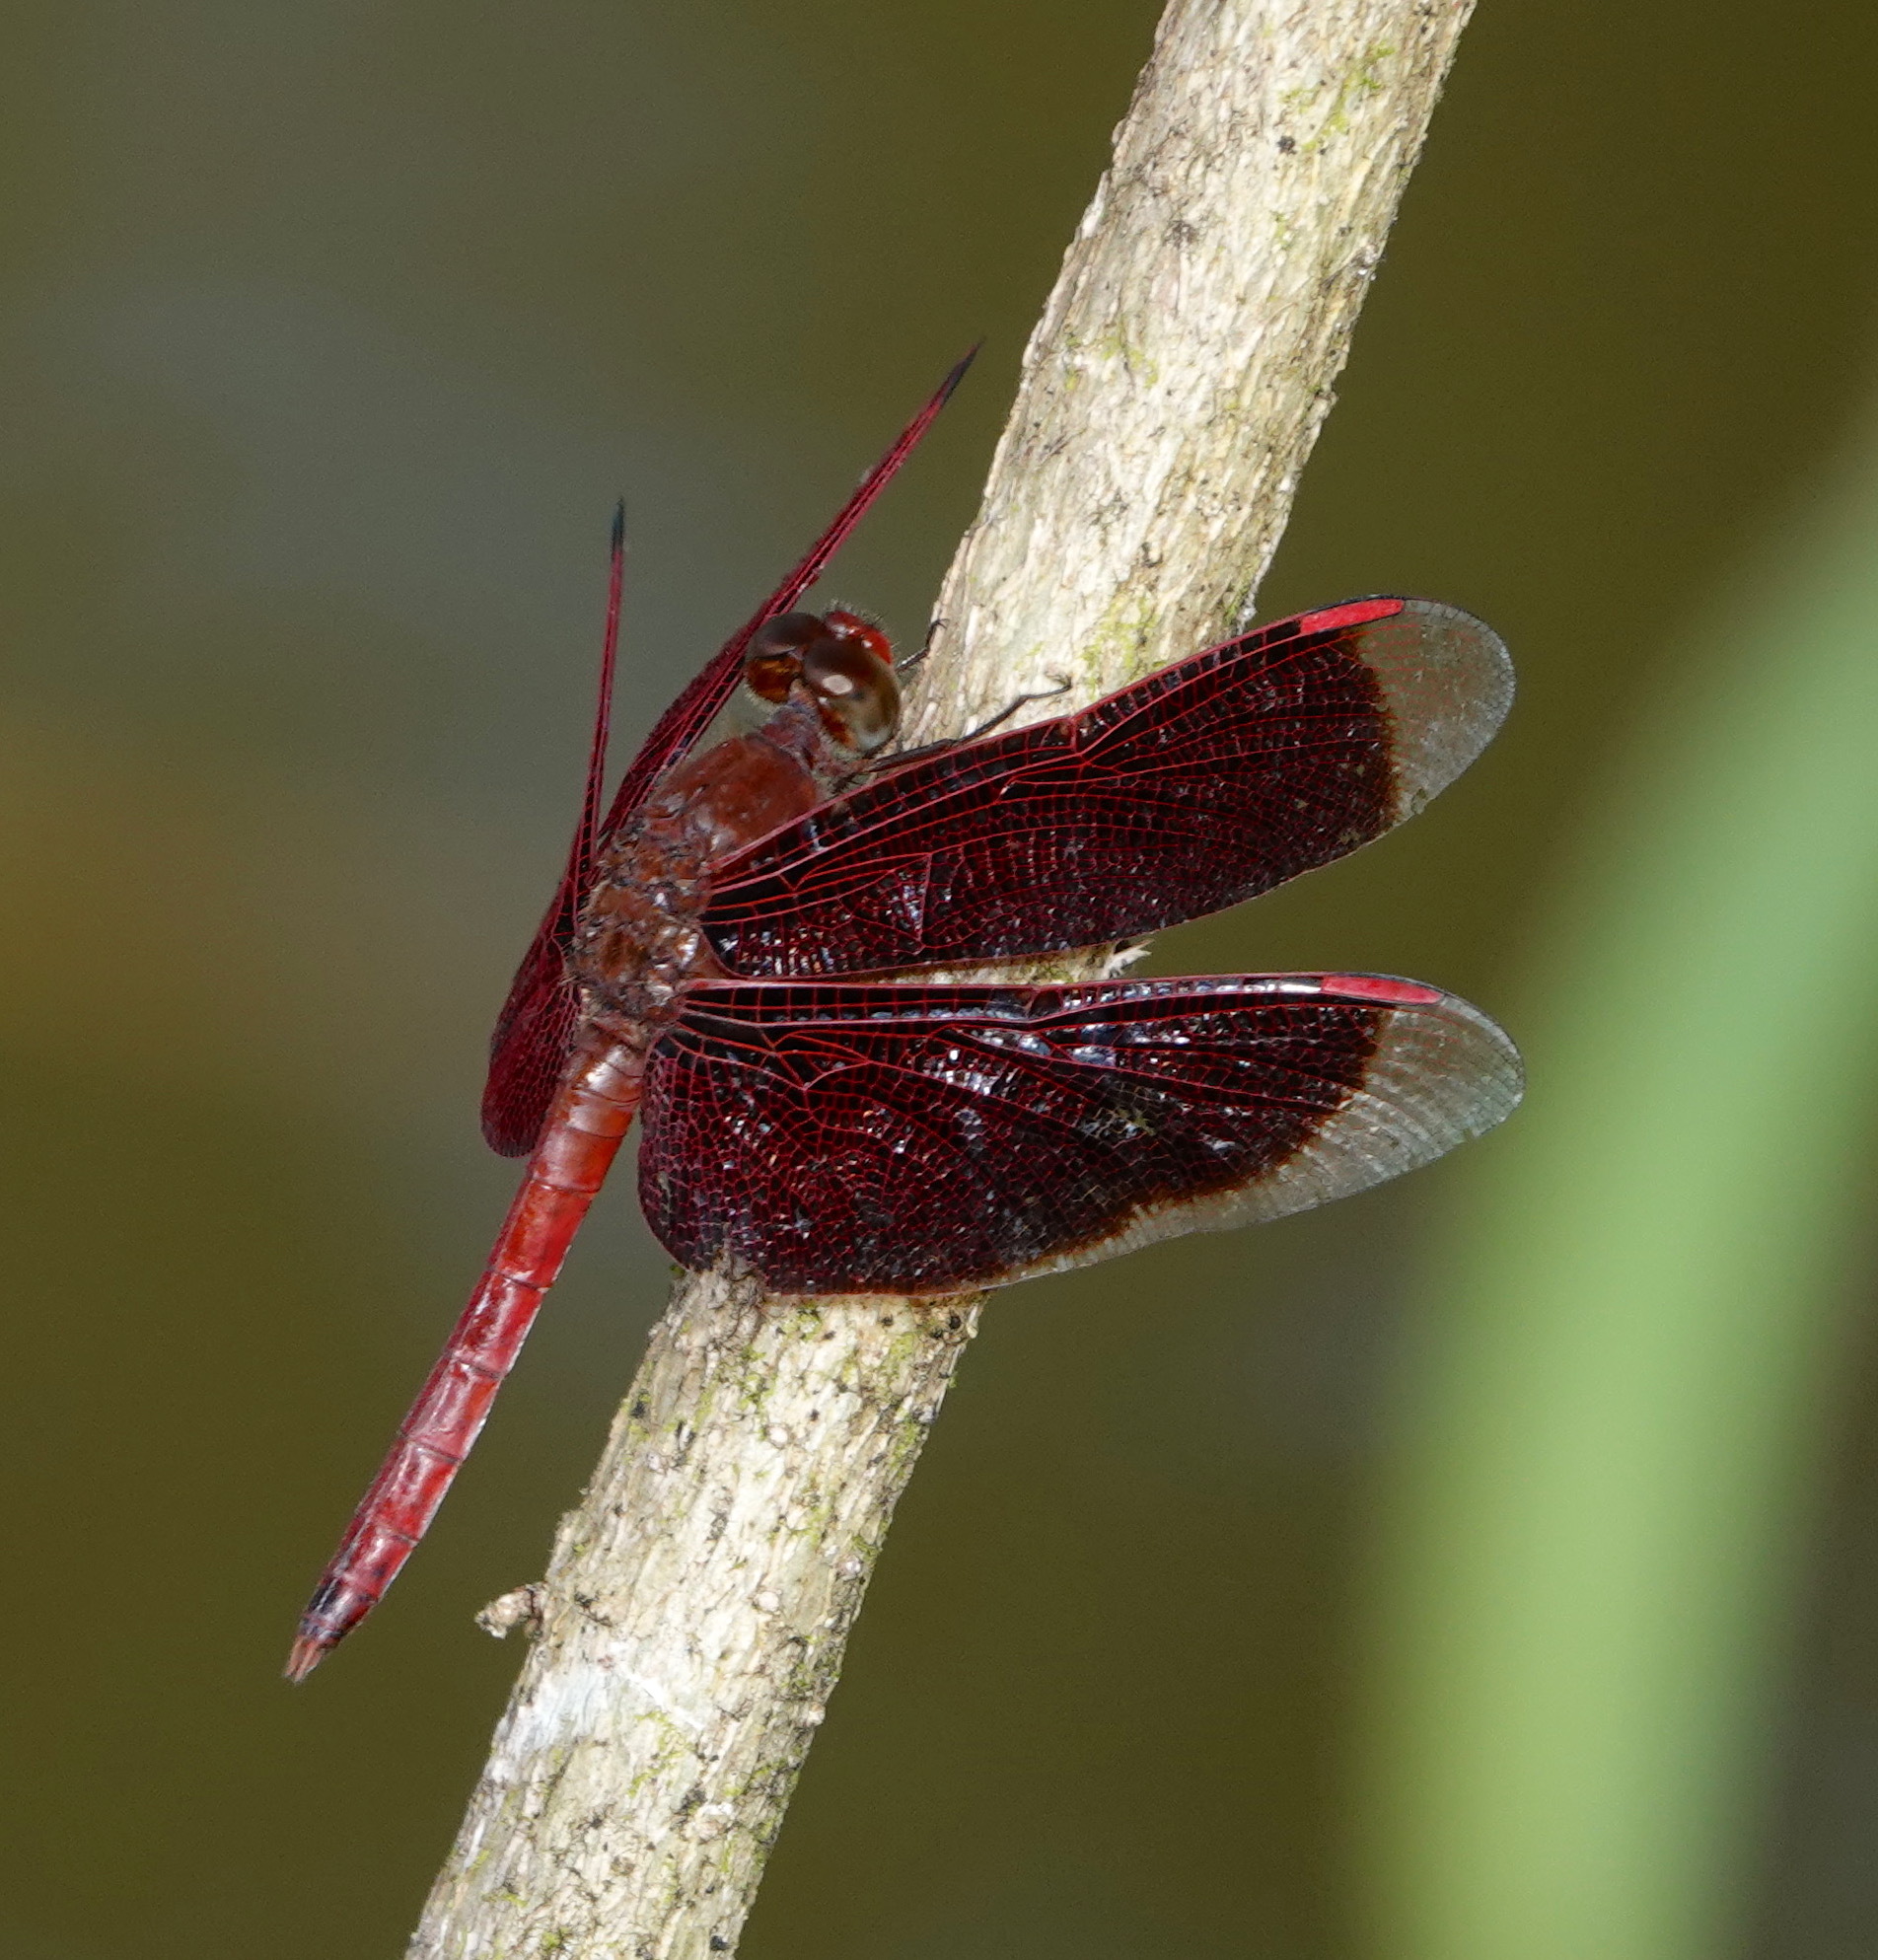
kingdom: Animalia
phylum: Arthropoda
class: Insecta
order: Odonata
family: Libellulidae
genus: Neurothemis
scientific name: Neurothemis fluctuans
